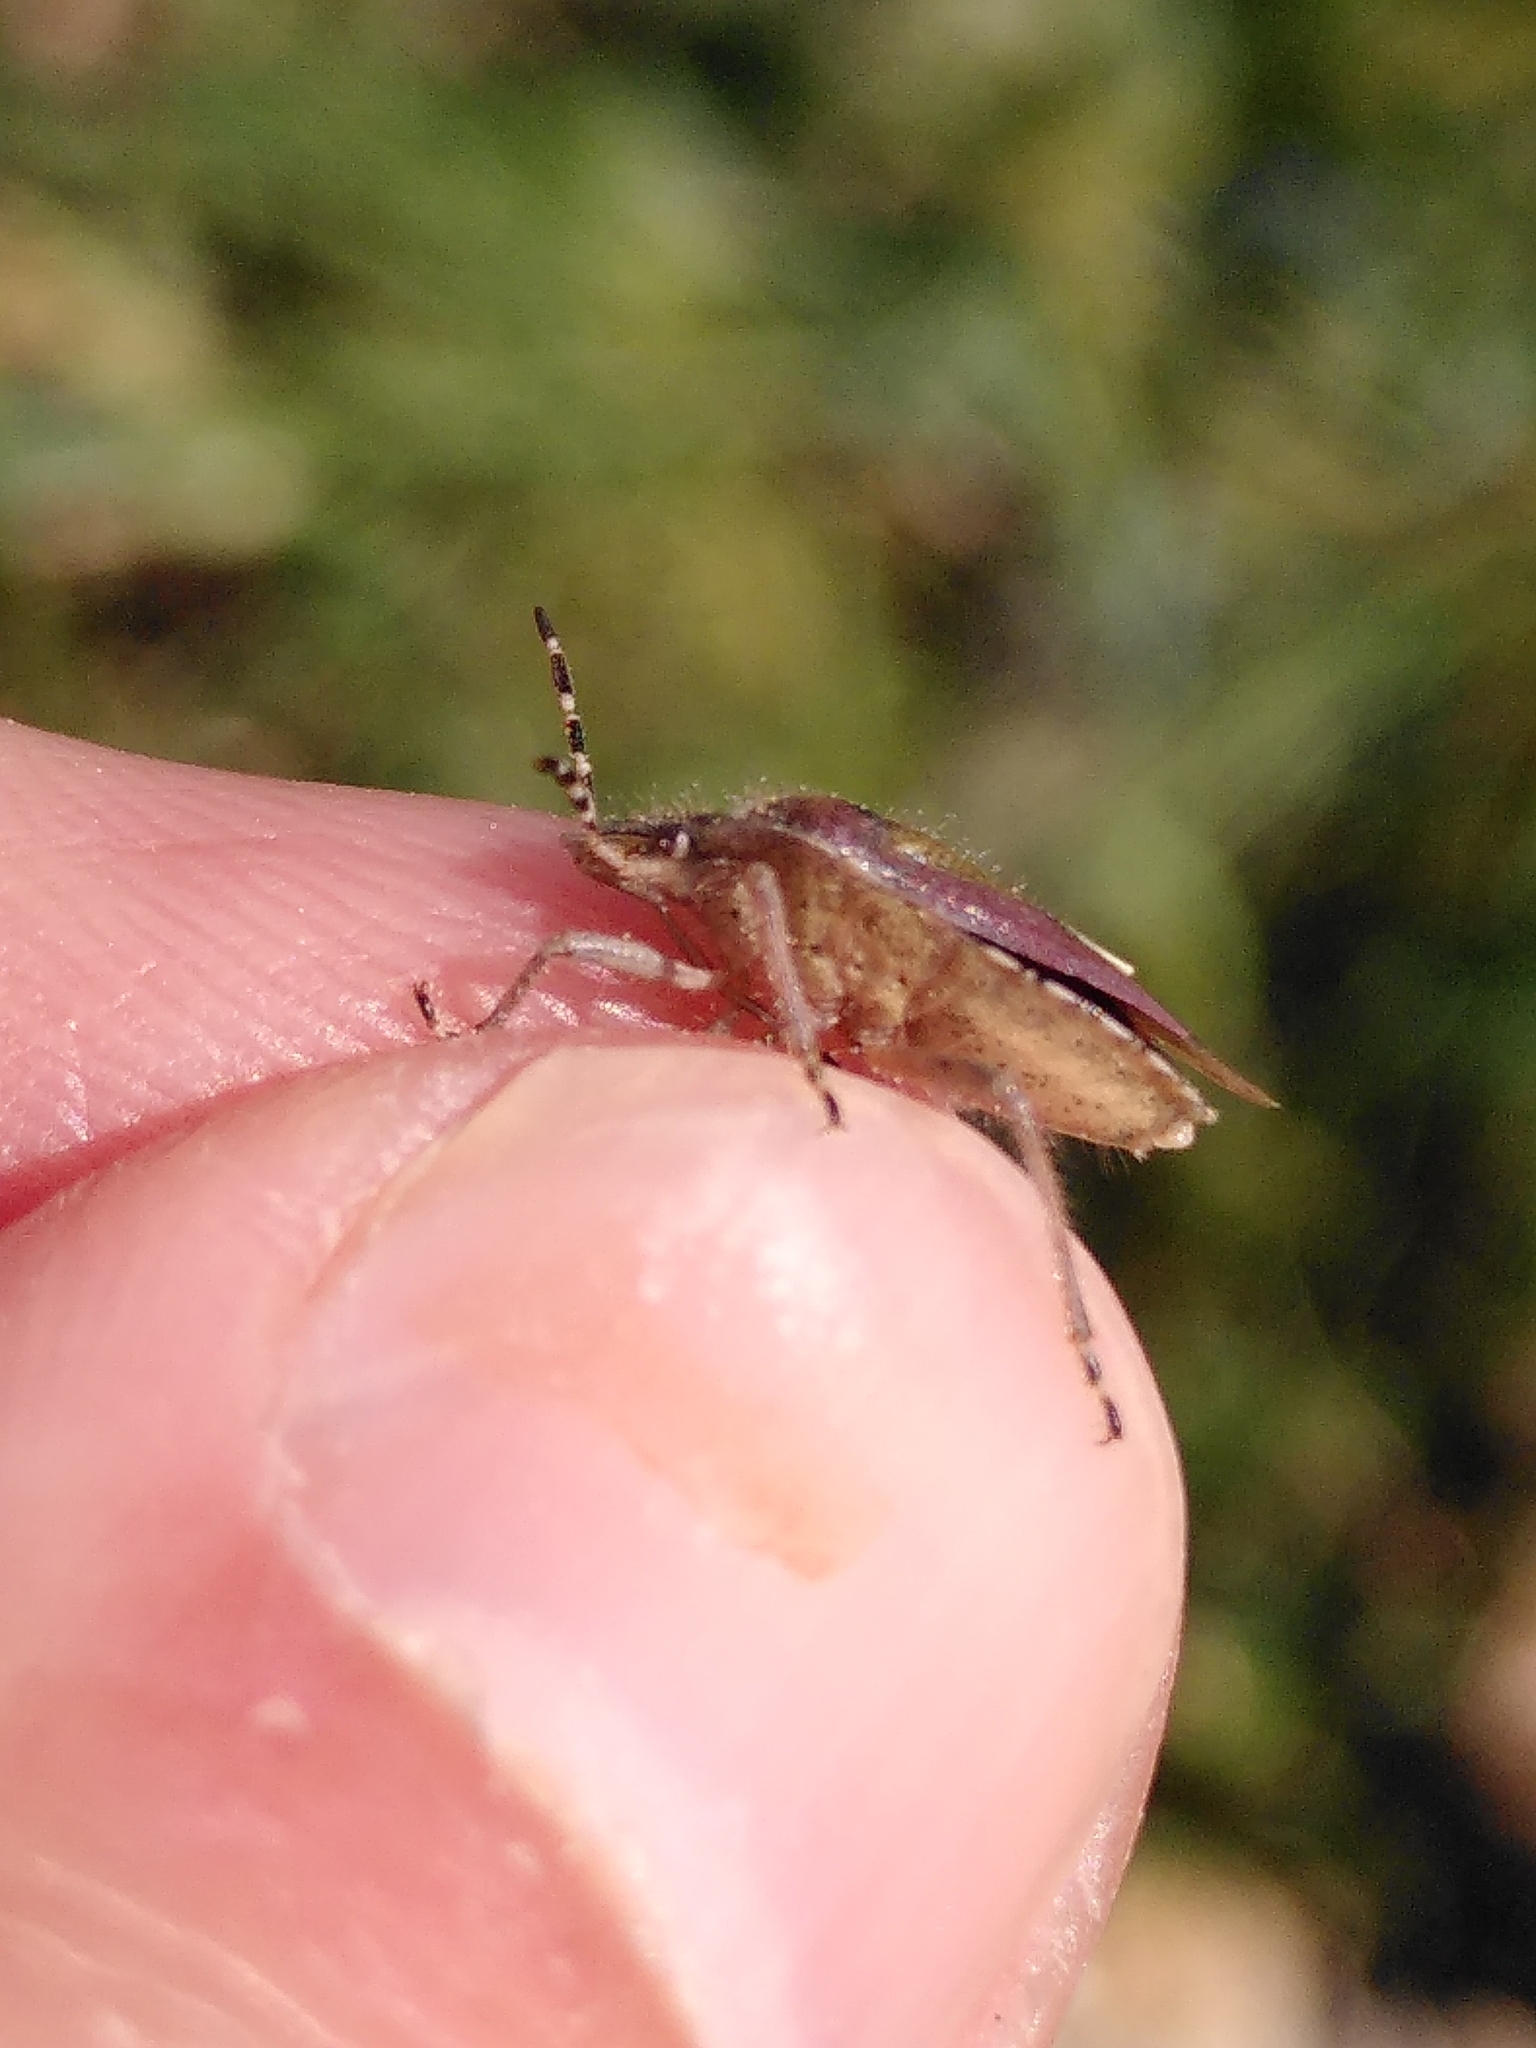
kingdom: Animalia
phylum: Arthropoda
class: Insecta
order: Hemiptera
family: Pentatomidae
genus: Dolycoris
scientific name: Dolycoris baccarum
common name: Sloe bug
